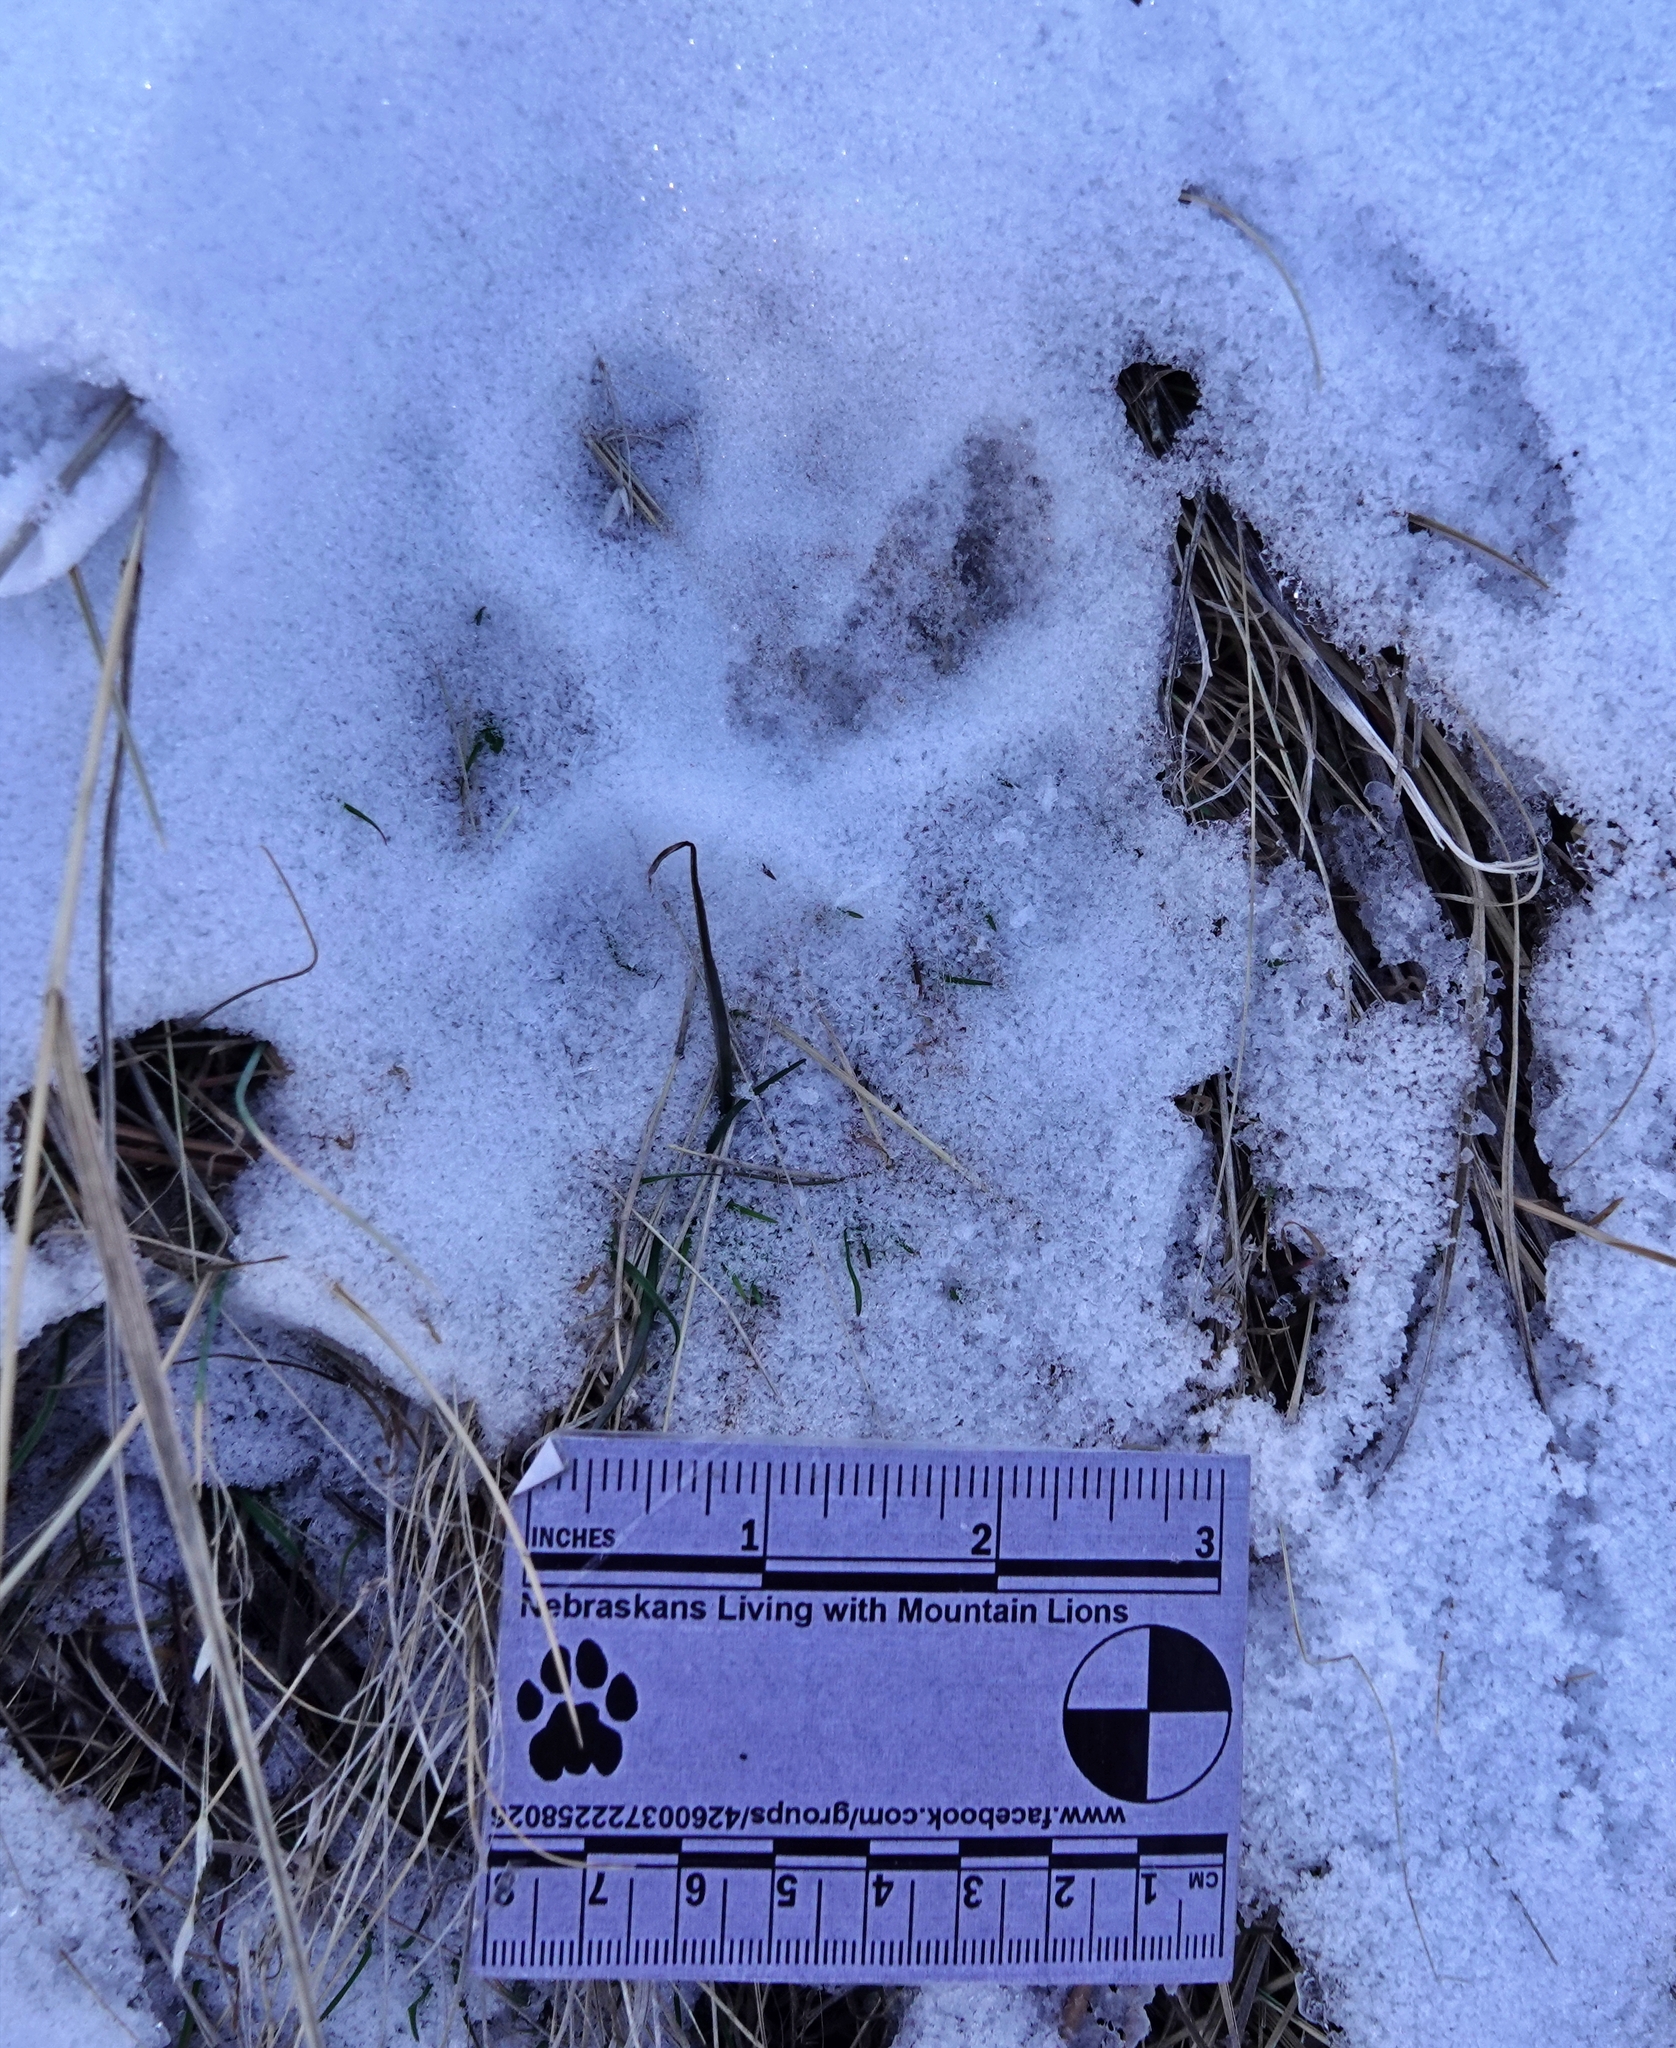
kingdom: Animalia
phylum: Chordata
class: Mammalia
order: Carnivora
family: Felidae
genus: Puma
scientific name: Puma concolor
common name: Puma
